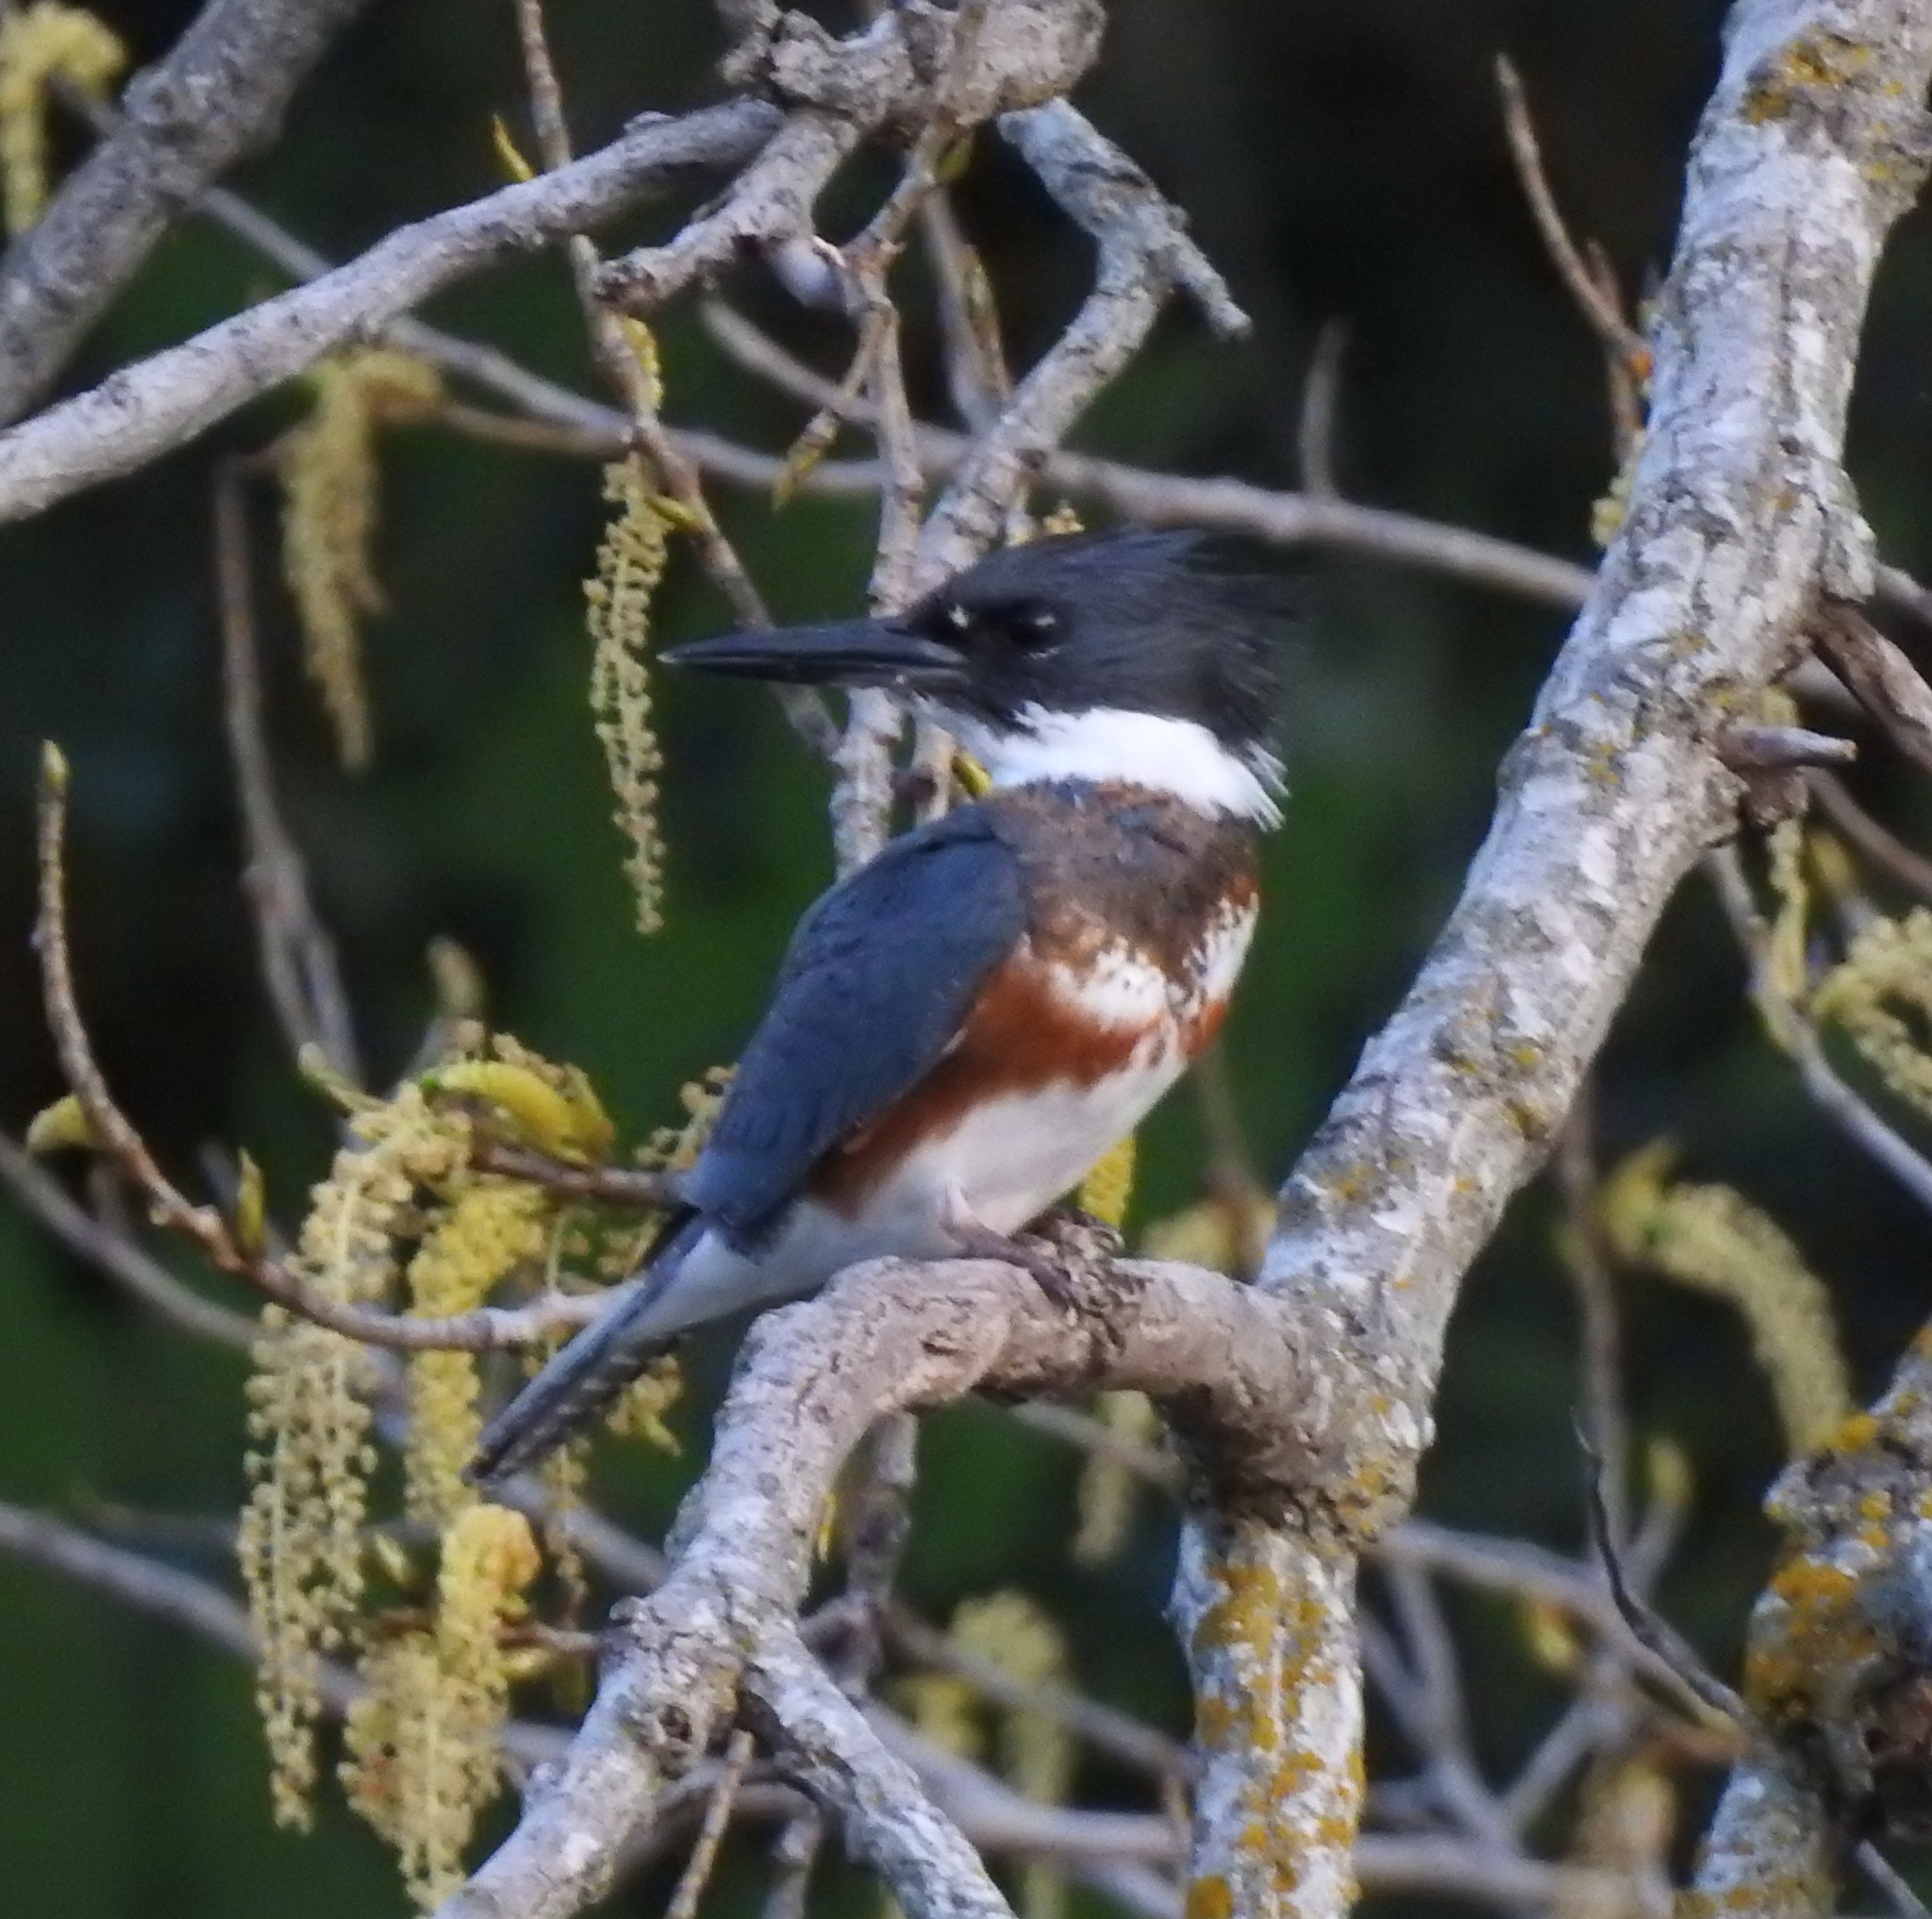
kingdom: Animalia
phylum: Chordata
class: Aves
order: Coraciiformes
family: Alcedinidae
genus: Megaceryle
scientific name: Megaceryle alcyon
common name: Belted kingfisher
